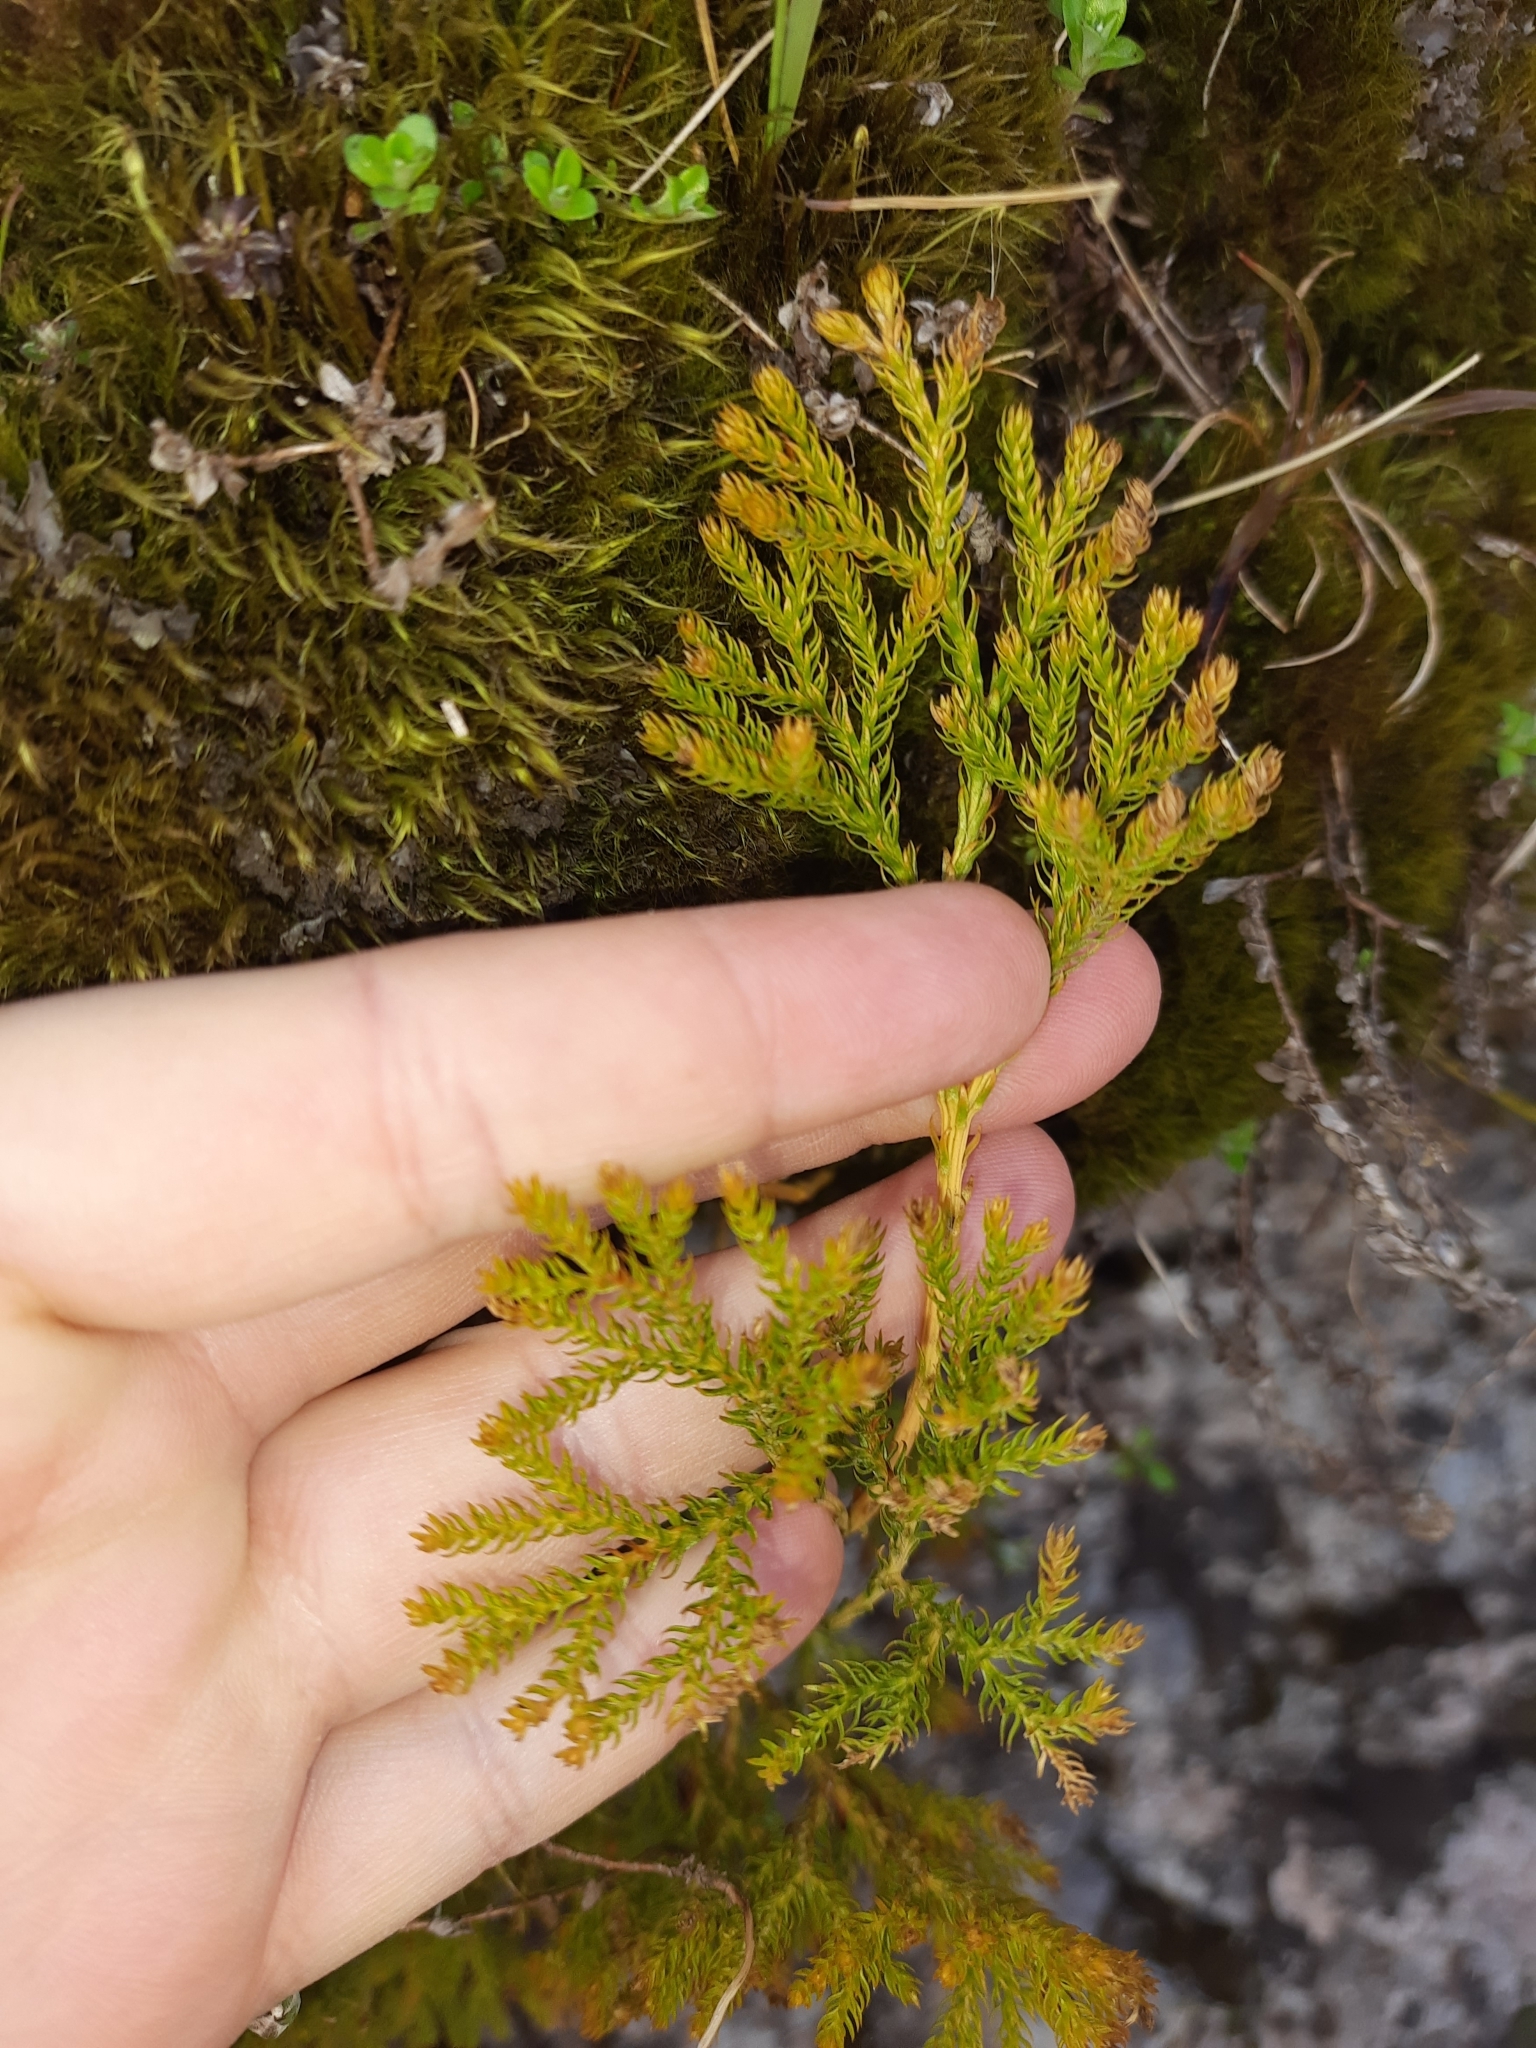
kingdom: Plantae
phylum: Tracheophyta
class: Lycopodiopsida
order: Lycopodiales
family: Lycopodiaceae
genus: Austrolycopodium
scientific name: Austrolycopodium fastigiatum
